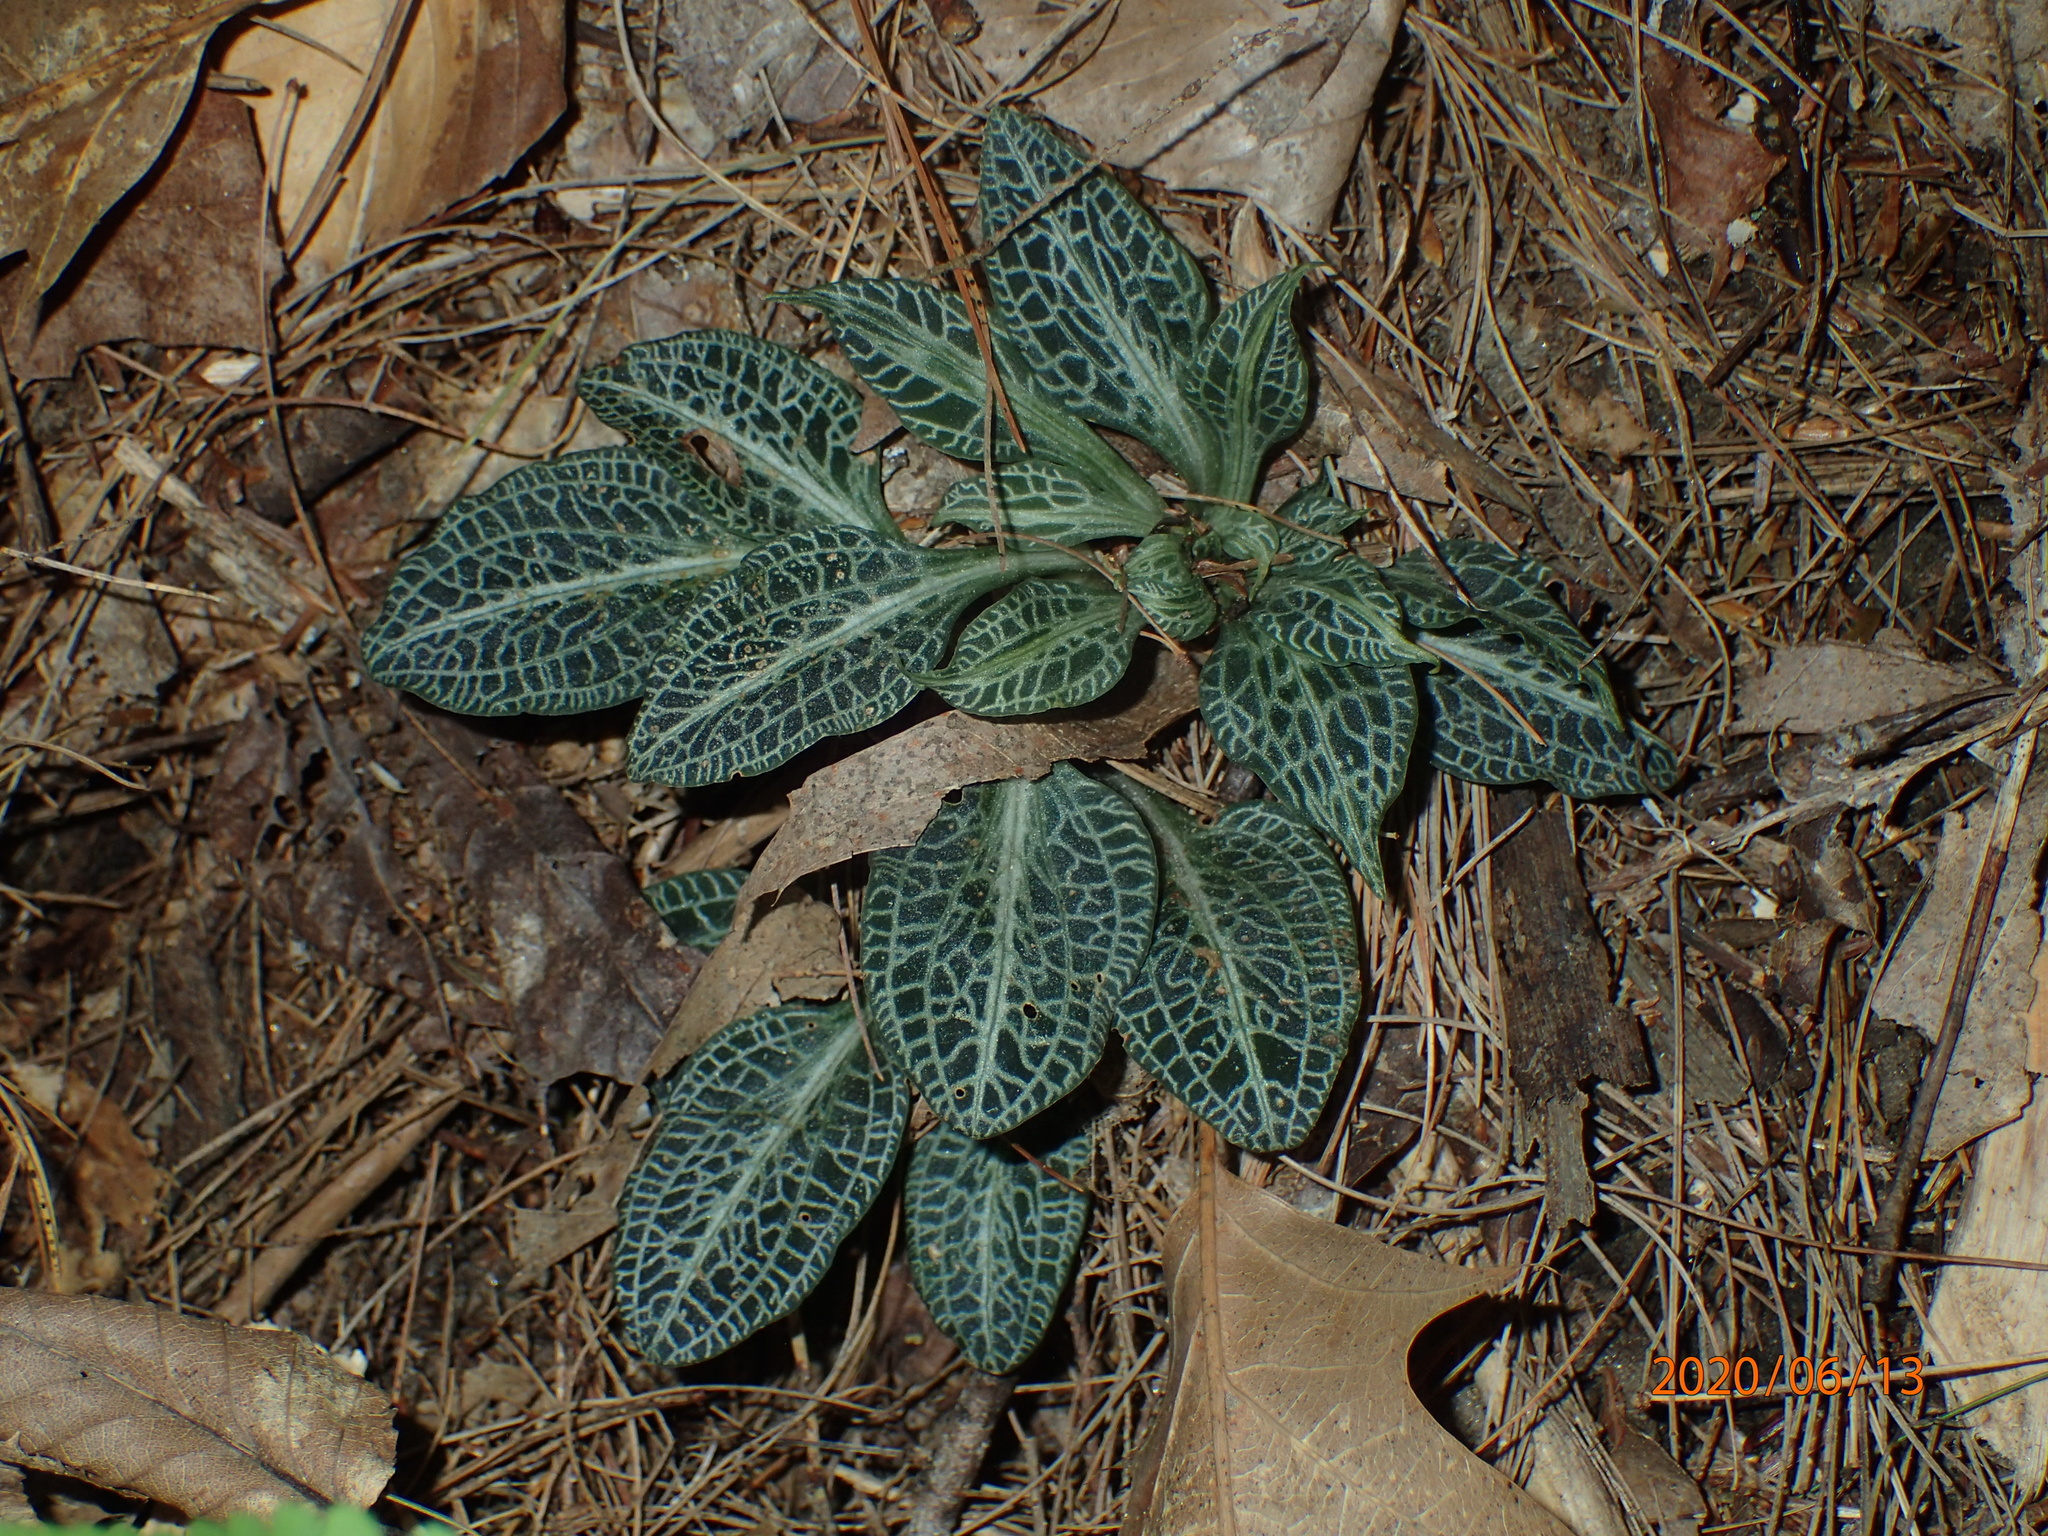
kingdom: Plantae
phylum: Tracheophyta
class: Liliopsida
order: Asparagales
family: Orchidaceae
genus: Goodyera
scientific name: Goodyera pubescens
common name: Downy rattlesnake-plantain
